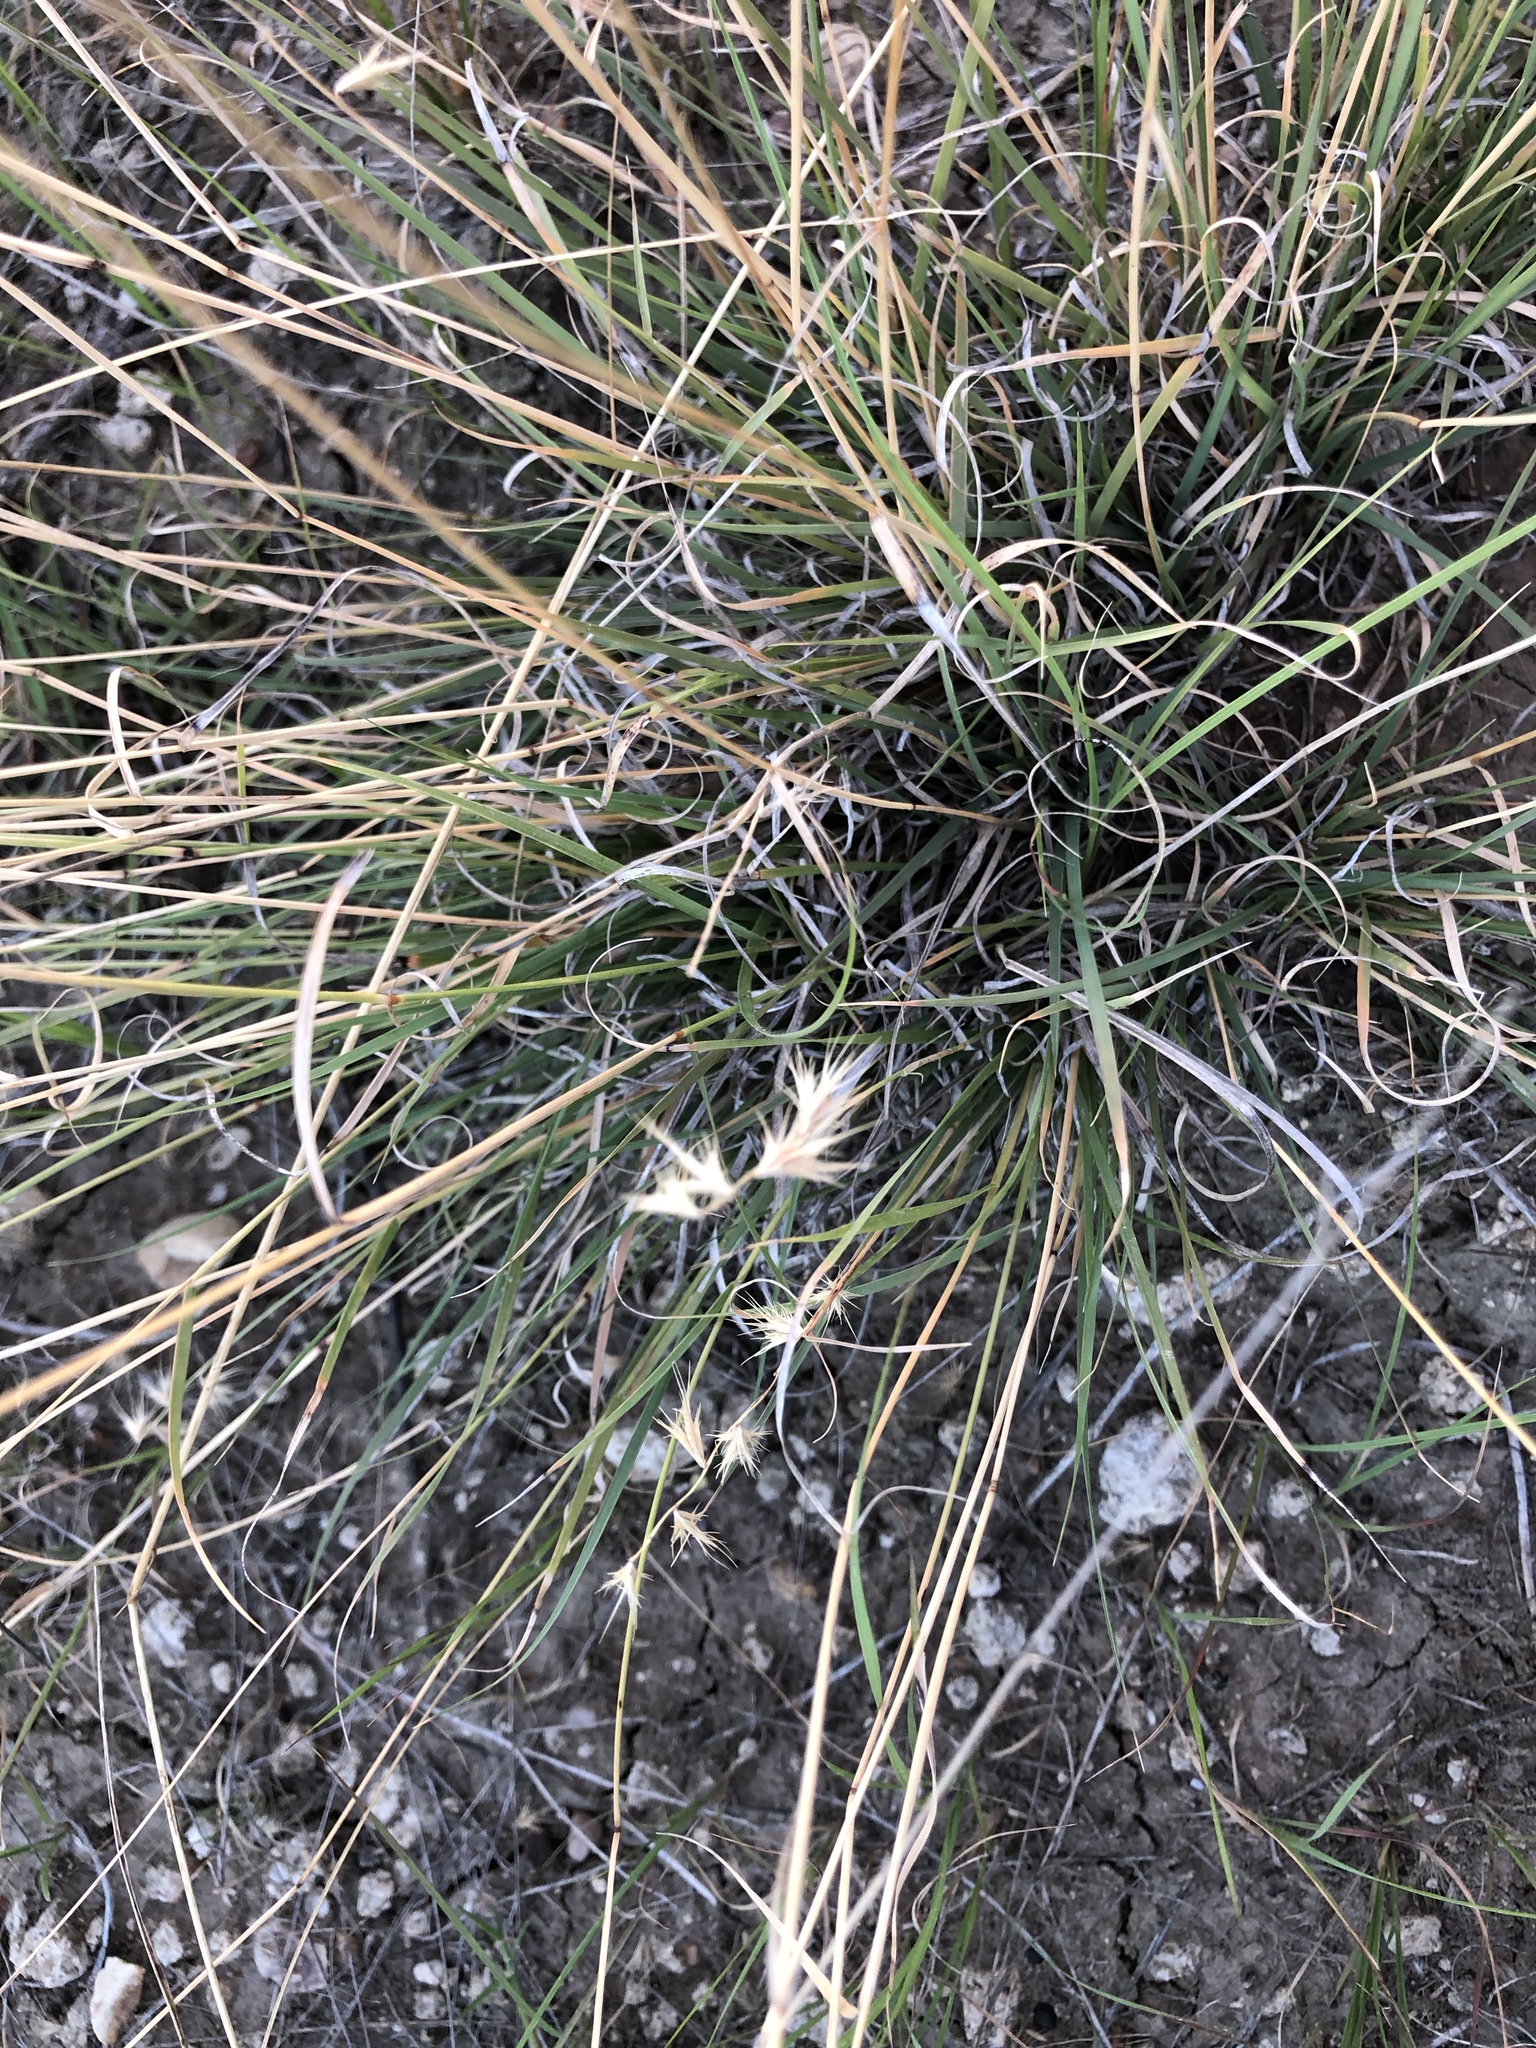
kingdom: Plantae
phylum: Tracheophyta
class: Liliopsida
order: Poales
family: Poaceae
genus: Bouteloua
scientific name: Bouteloua rigidiseta
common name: Texas grama
